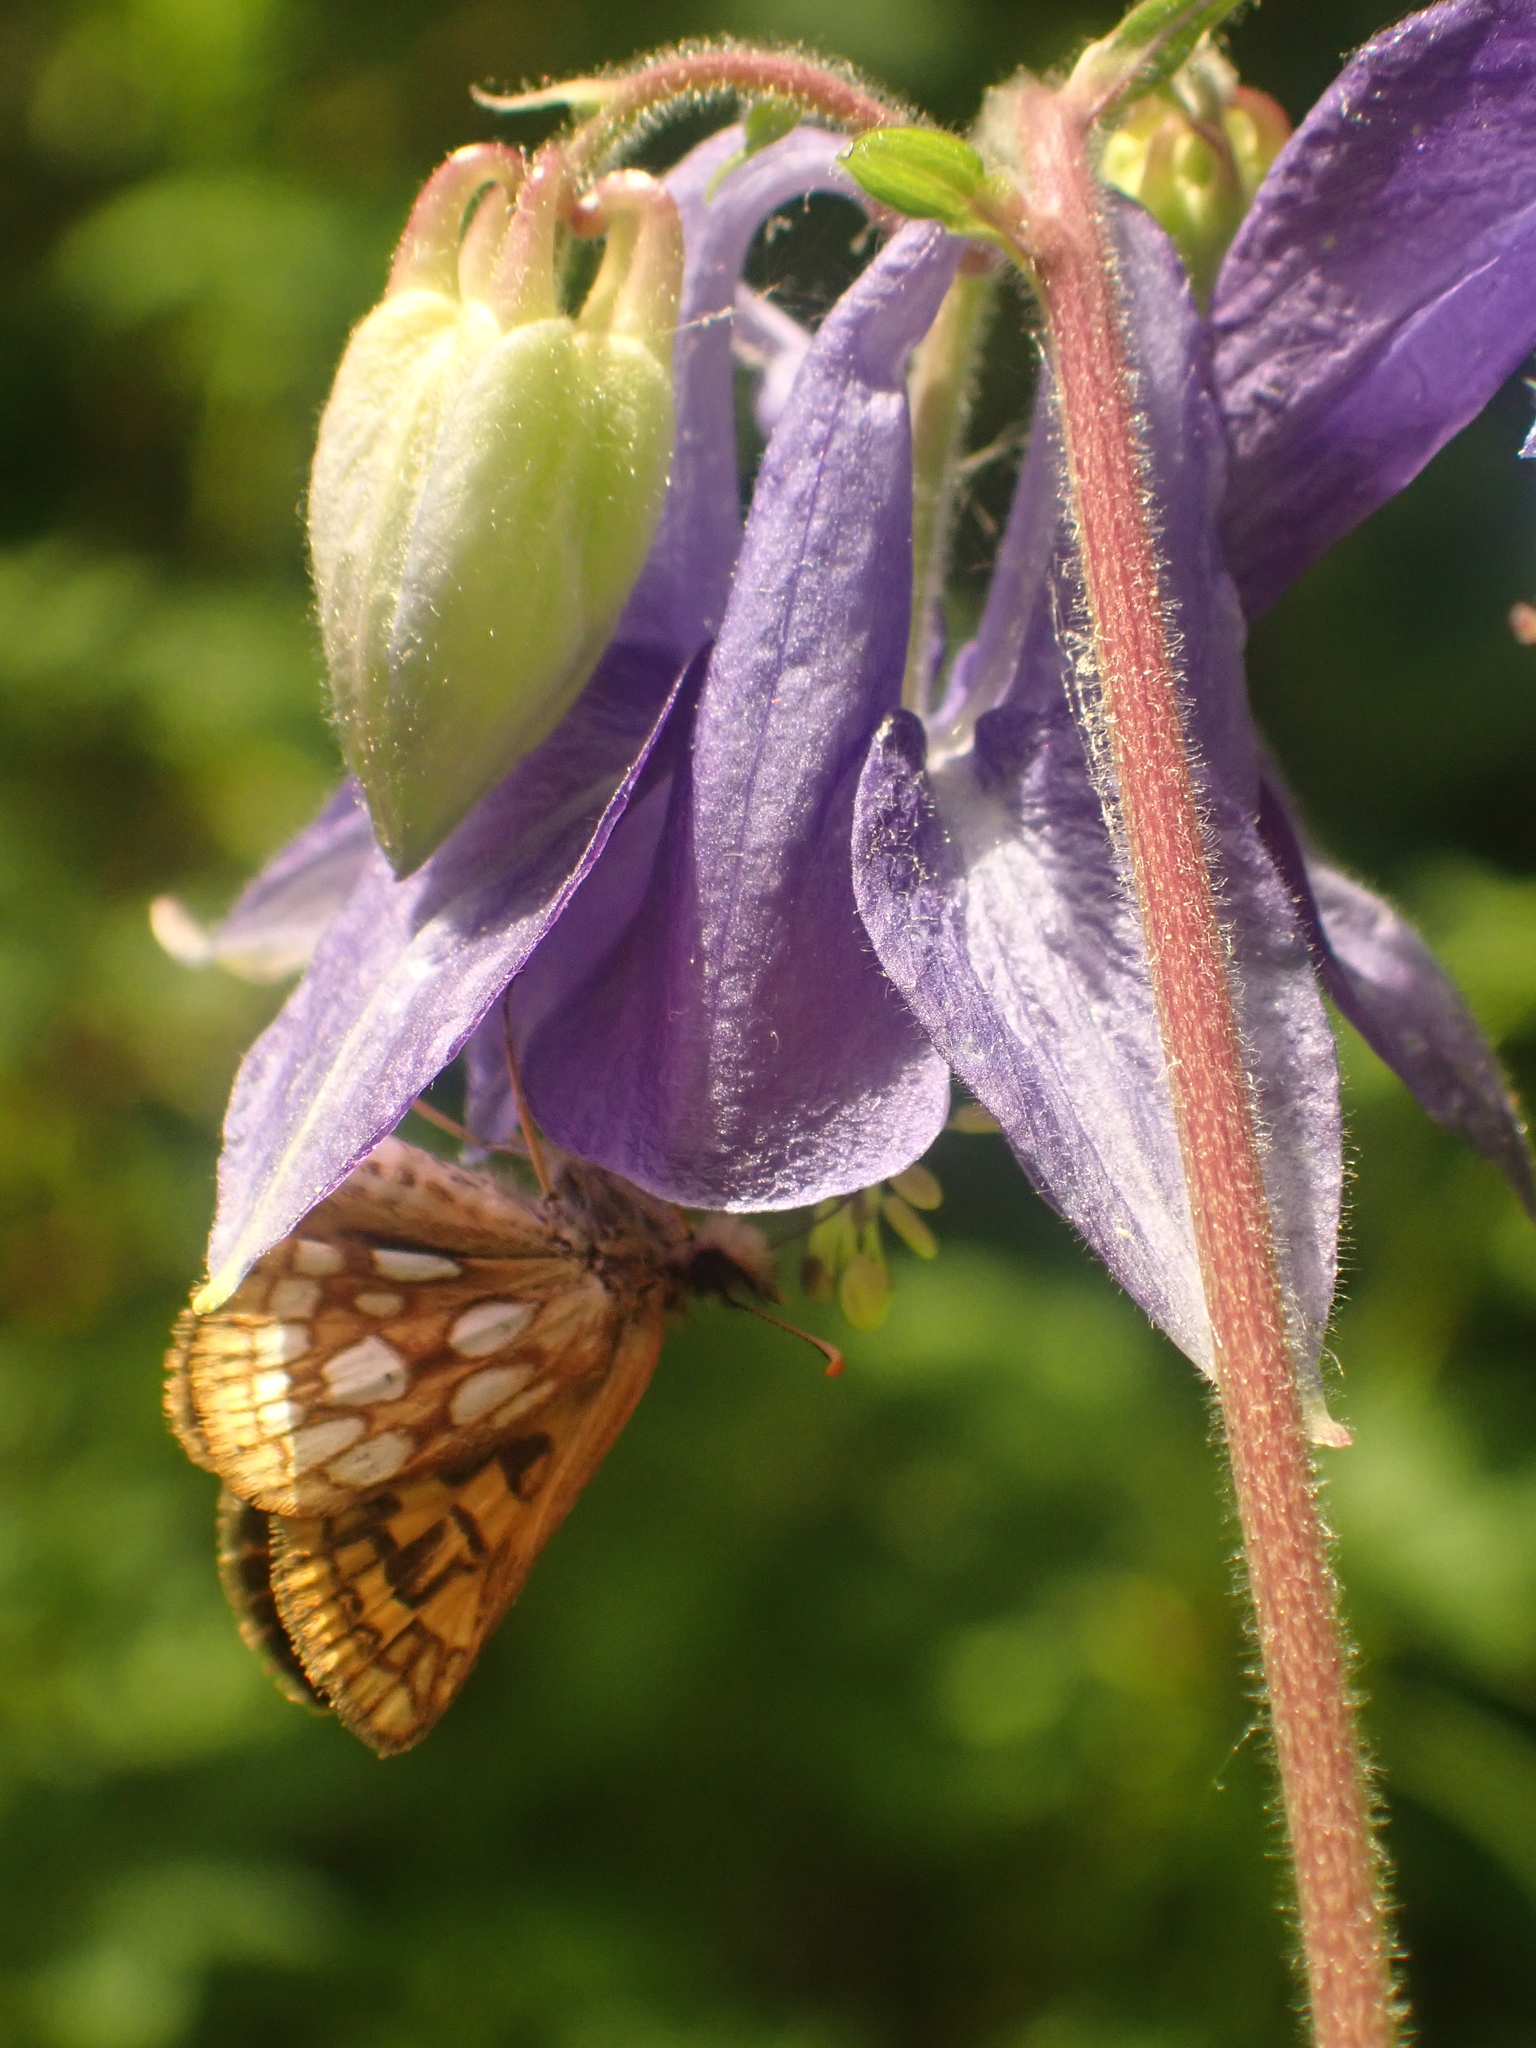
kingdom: Animalia
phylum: Arthropoda
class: Insecta
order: Lepidoptera
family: Hesperiidae
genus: Carterocephalus
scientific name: Carterocephalus mandan
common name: Arctic skipperling
